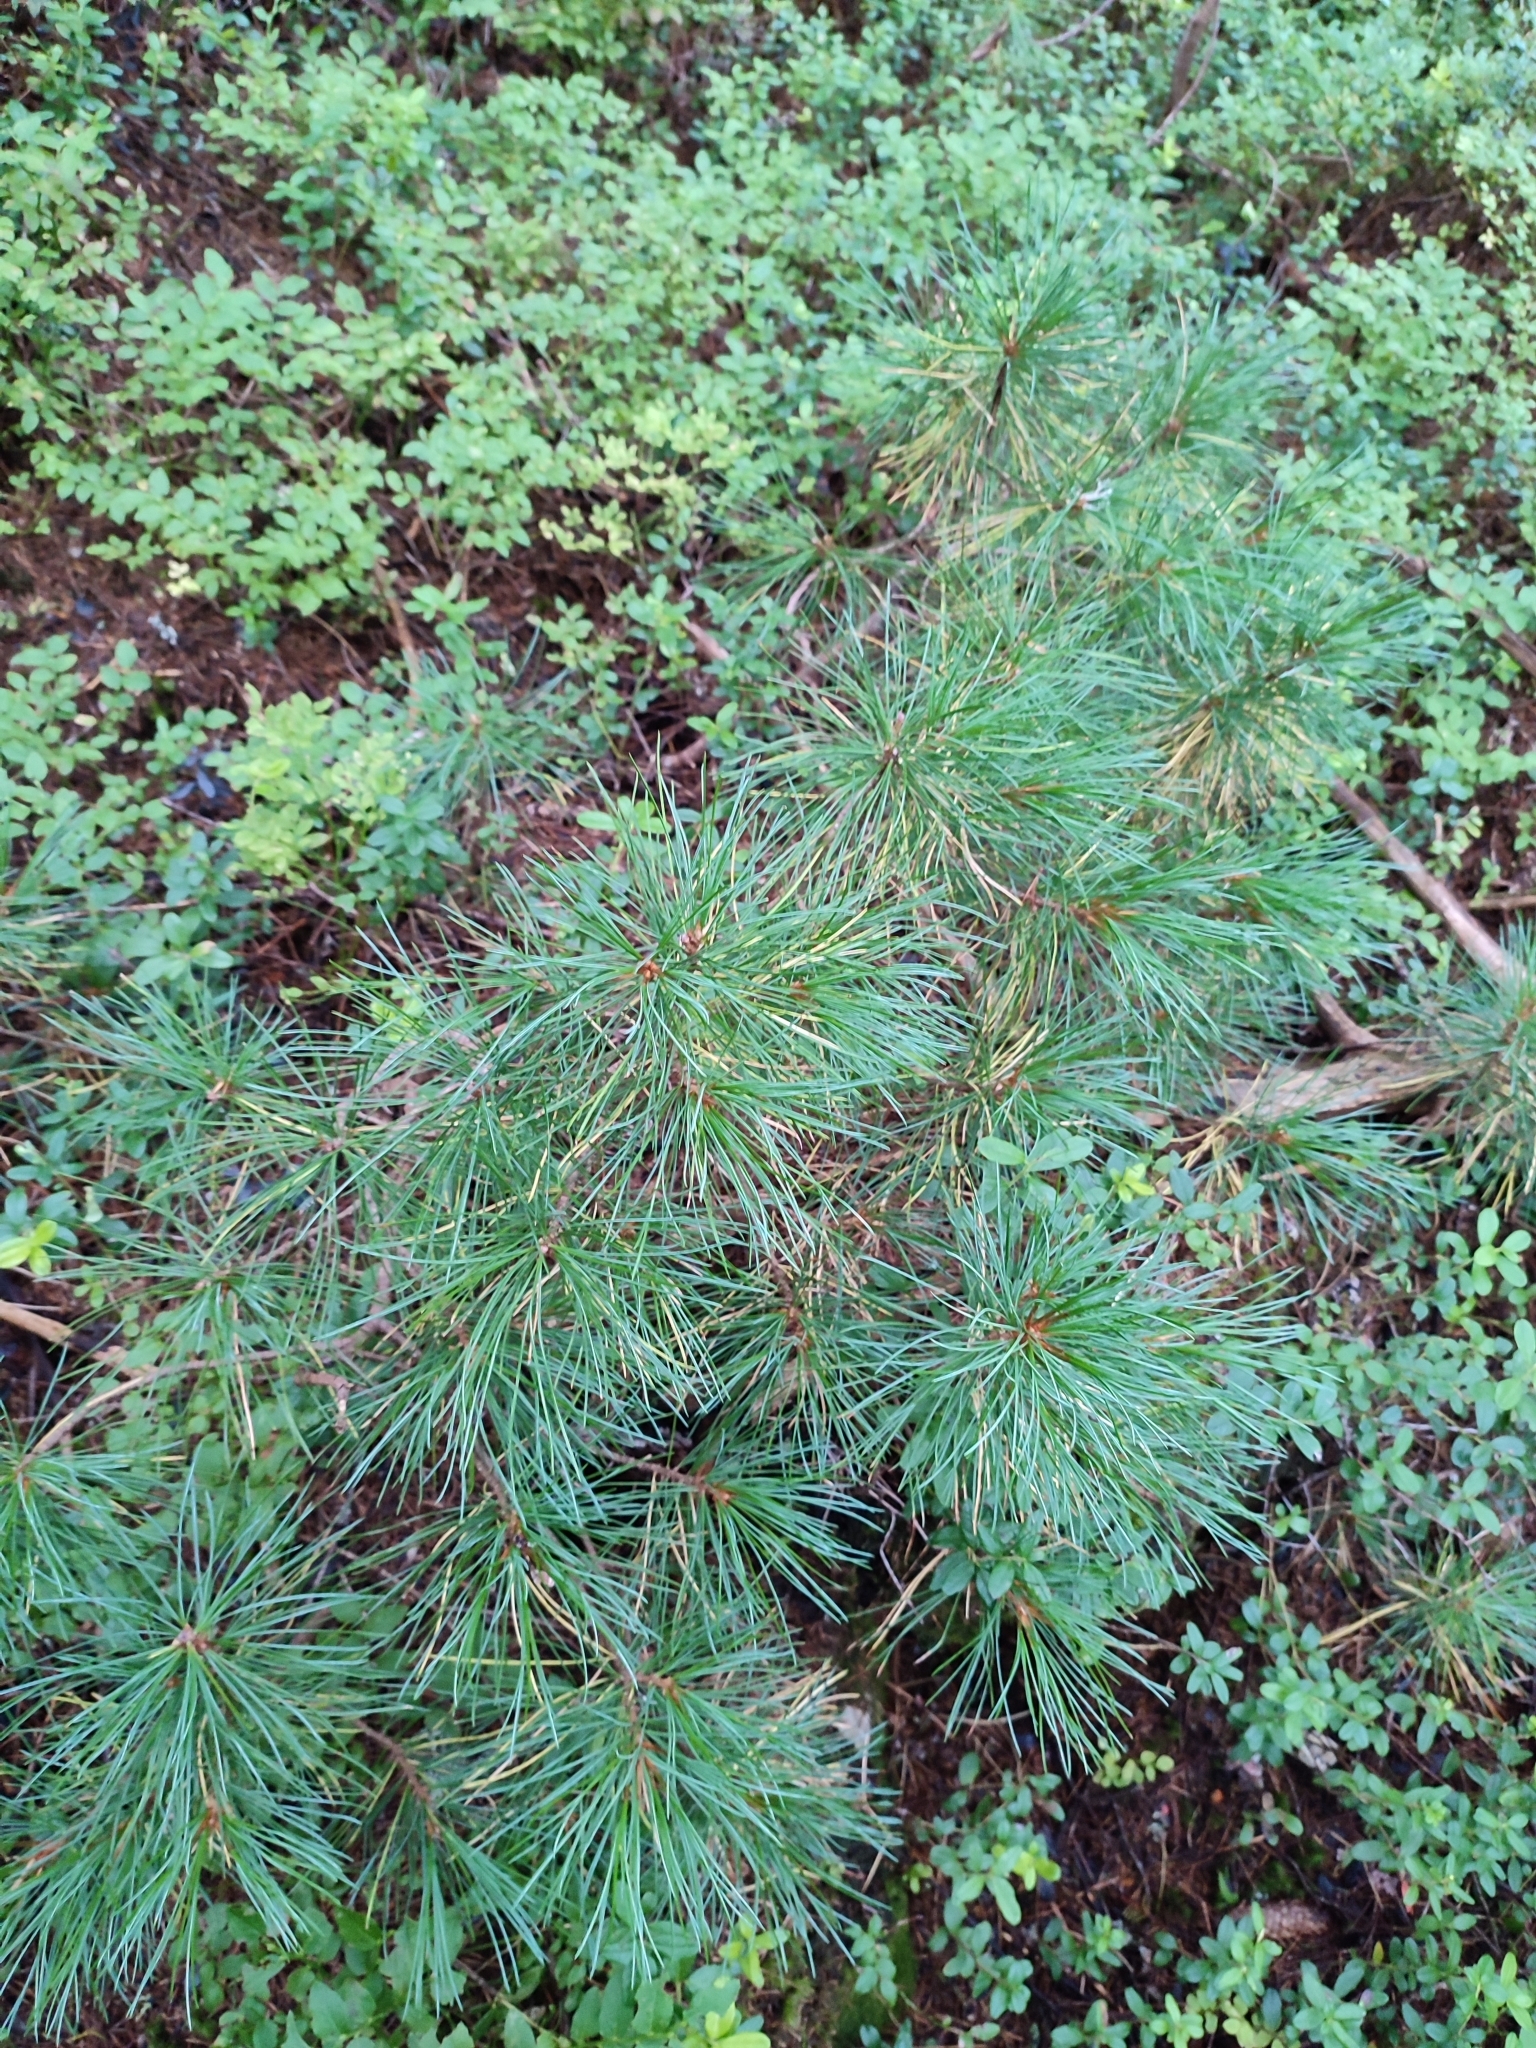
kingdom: Plantae
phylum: Tracheophyta
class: Pinopsida
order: Pinales
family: Pinaceae
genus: Pinus
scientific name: Pinus cembra
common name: Arolla pine
